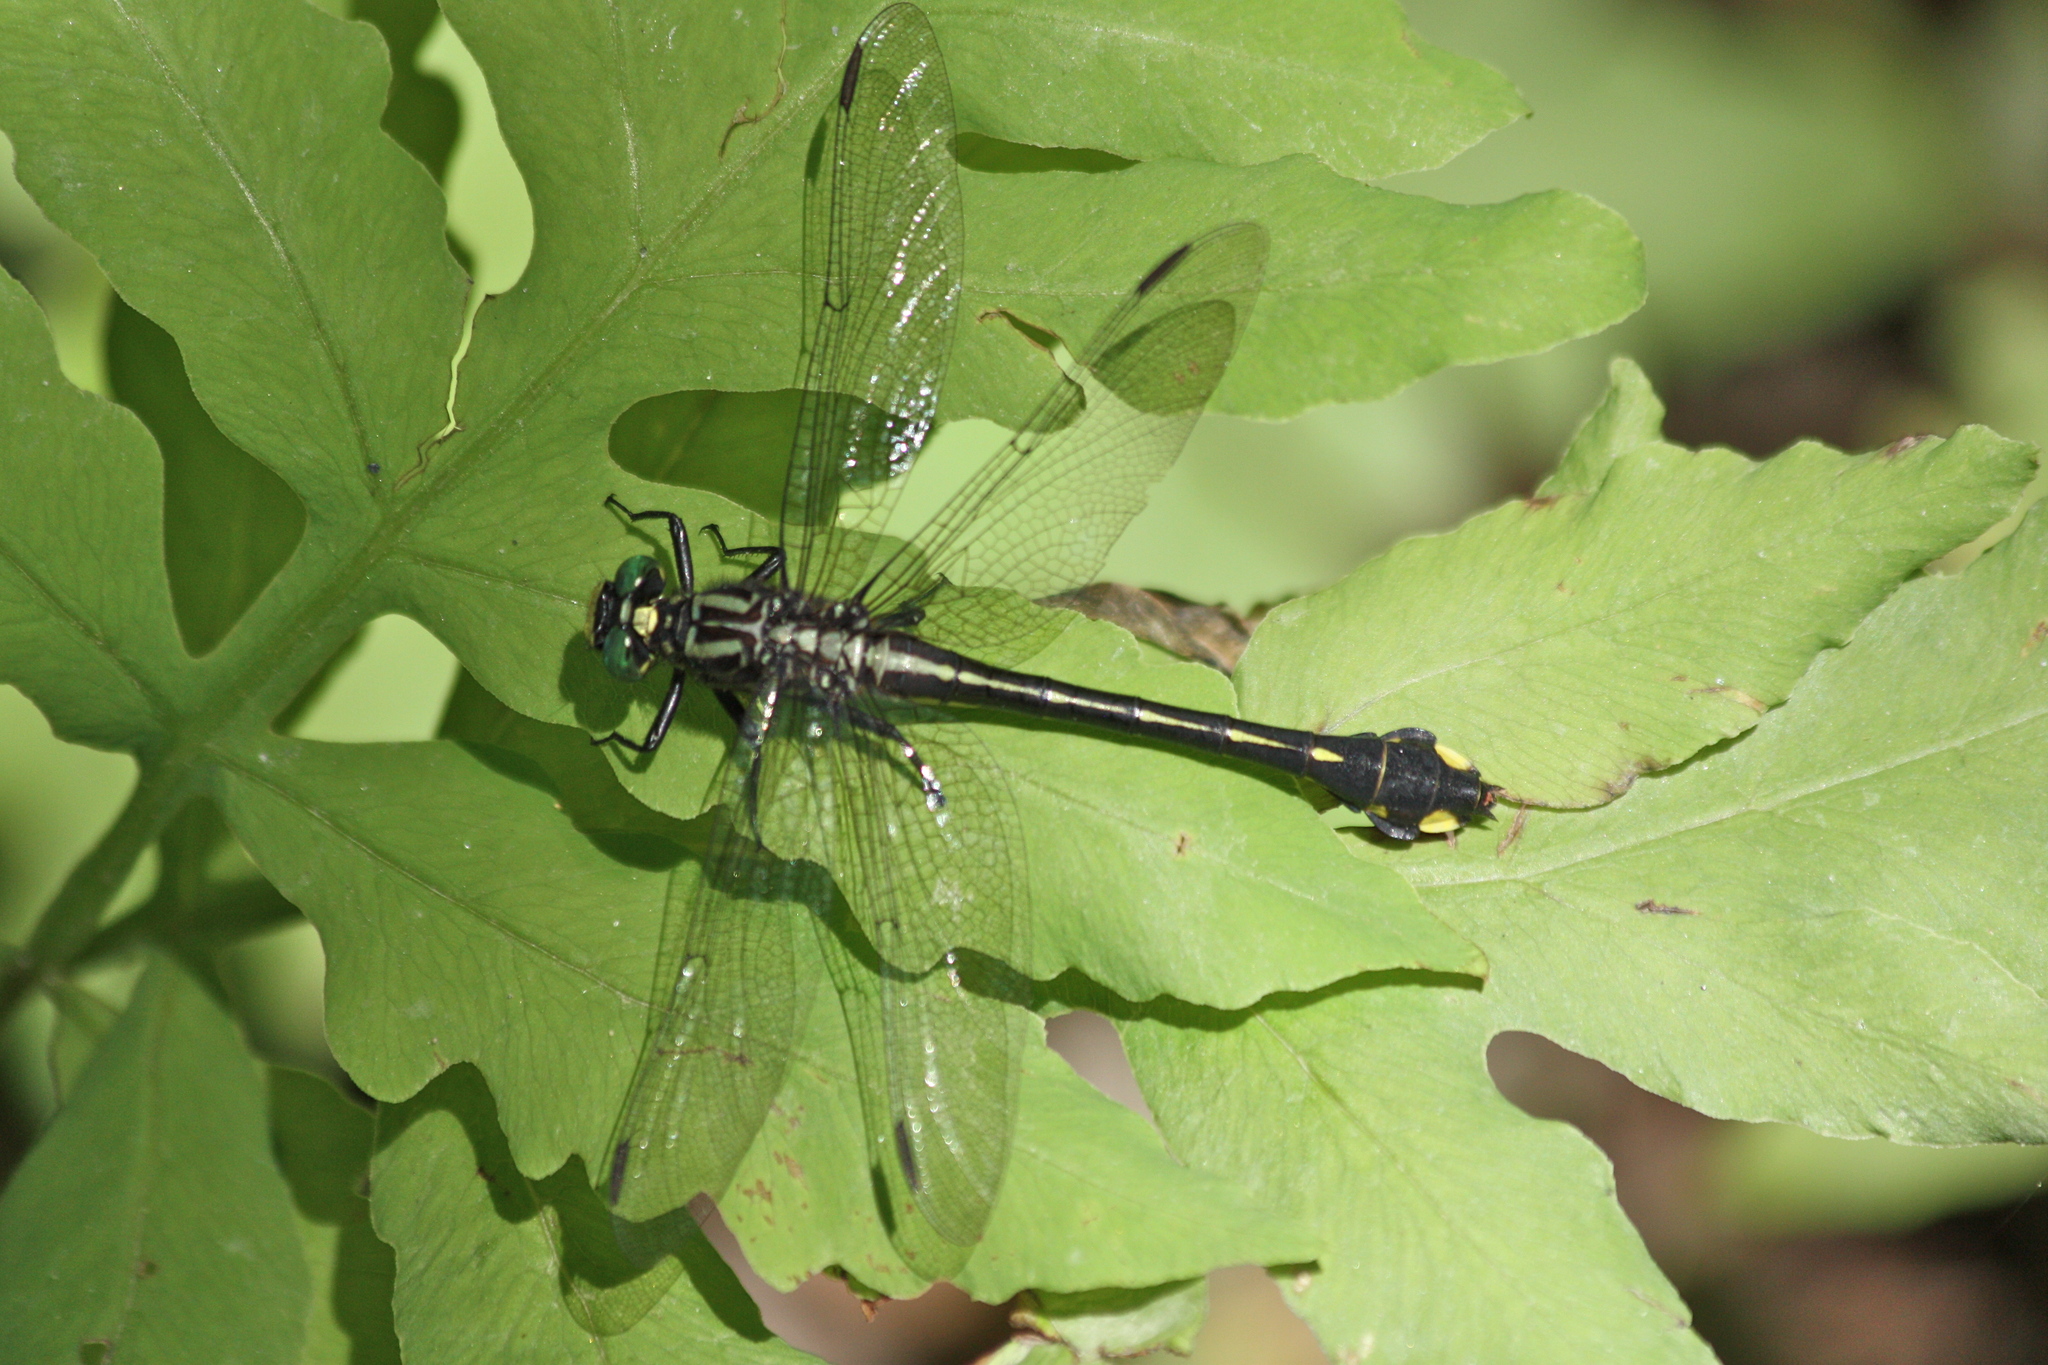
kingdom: Animalia
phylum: Arthropoda
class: Insecta
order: Odonata
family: Gomphidae
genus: Gomphurus
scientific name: Gomphurus vastus
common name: Cobra clubtail
